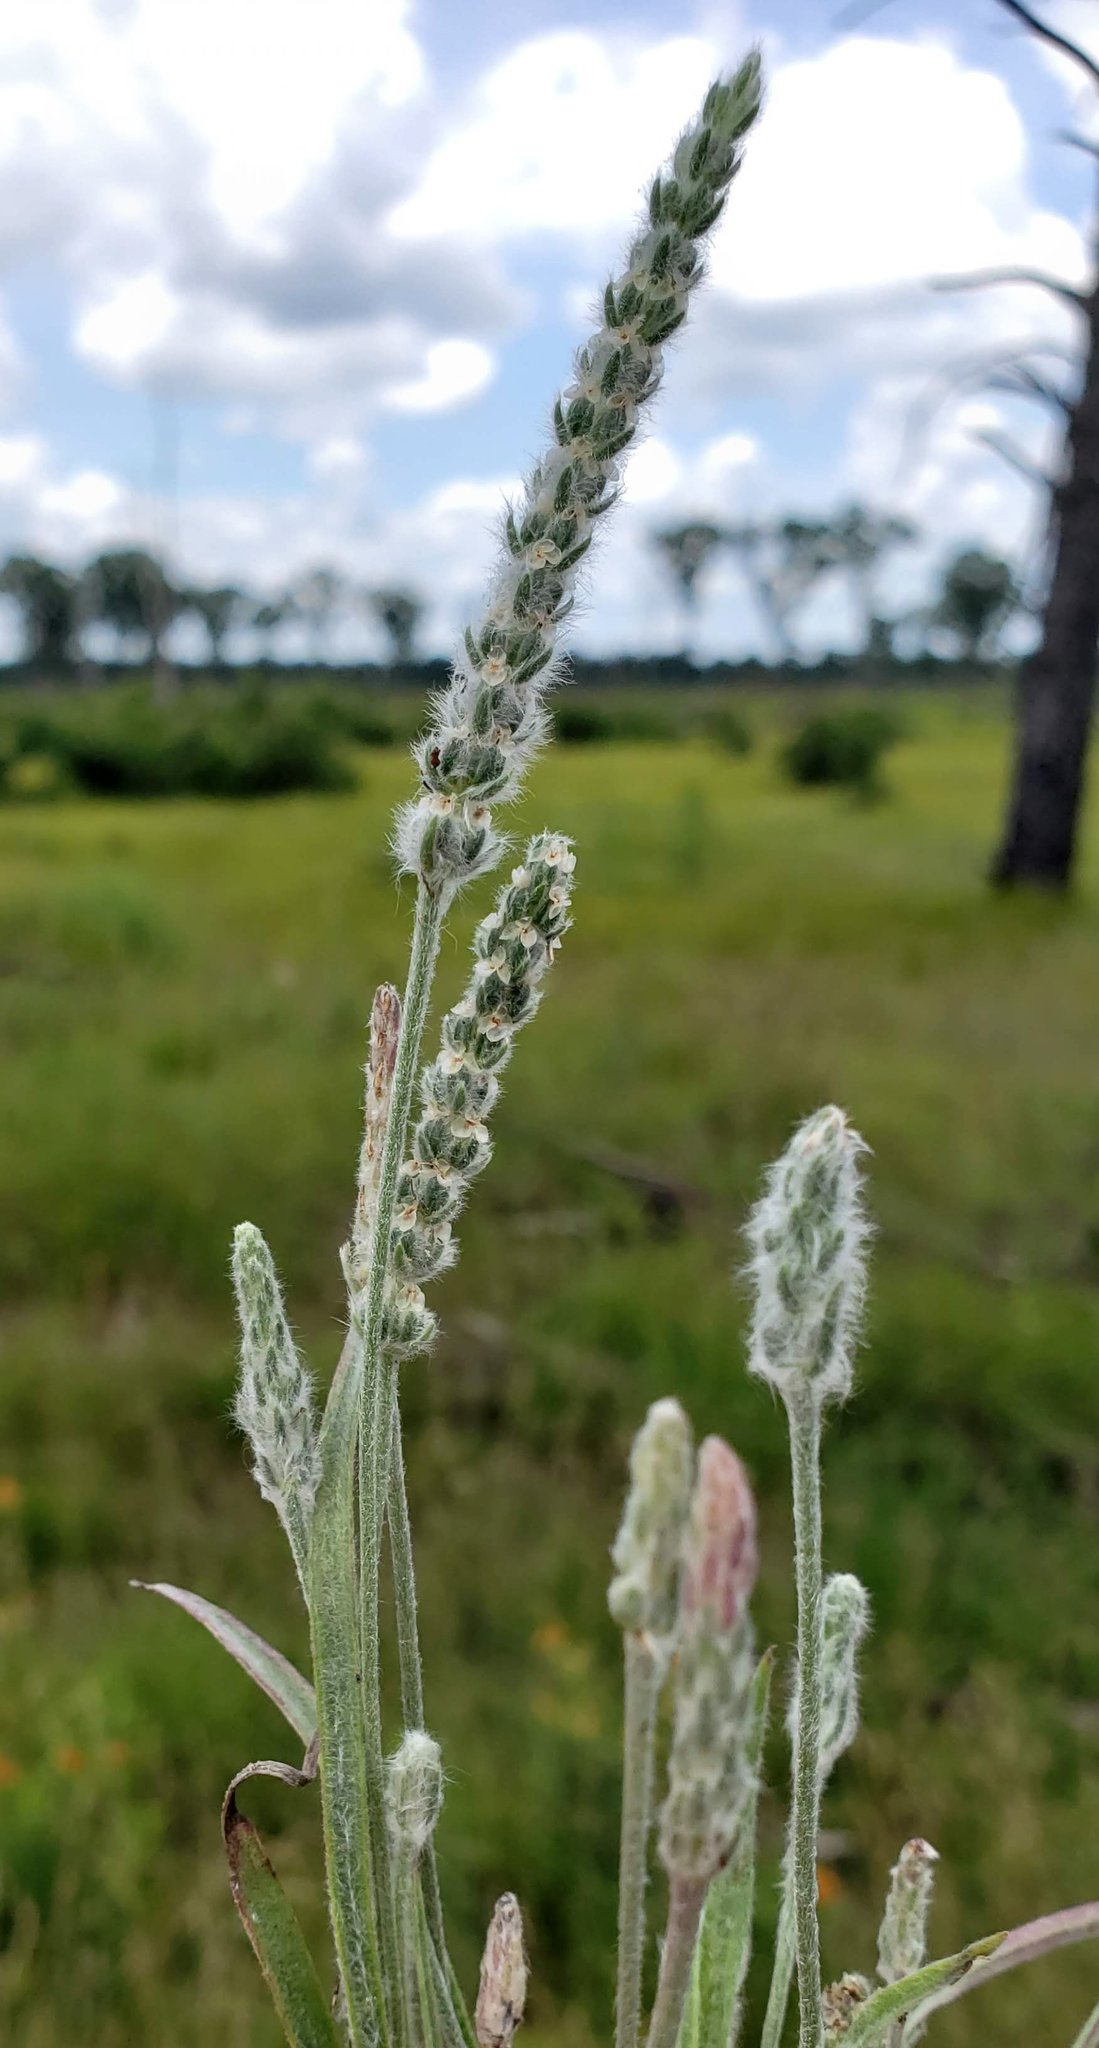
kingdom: Plantae
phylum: Tracheophyta
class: Magnoliopsida
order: Lamiales
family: Plantaginaceae
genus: Plantago
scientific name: Plantago patagonica
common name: Patagonia indian-wheat
